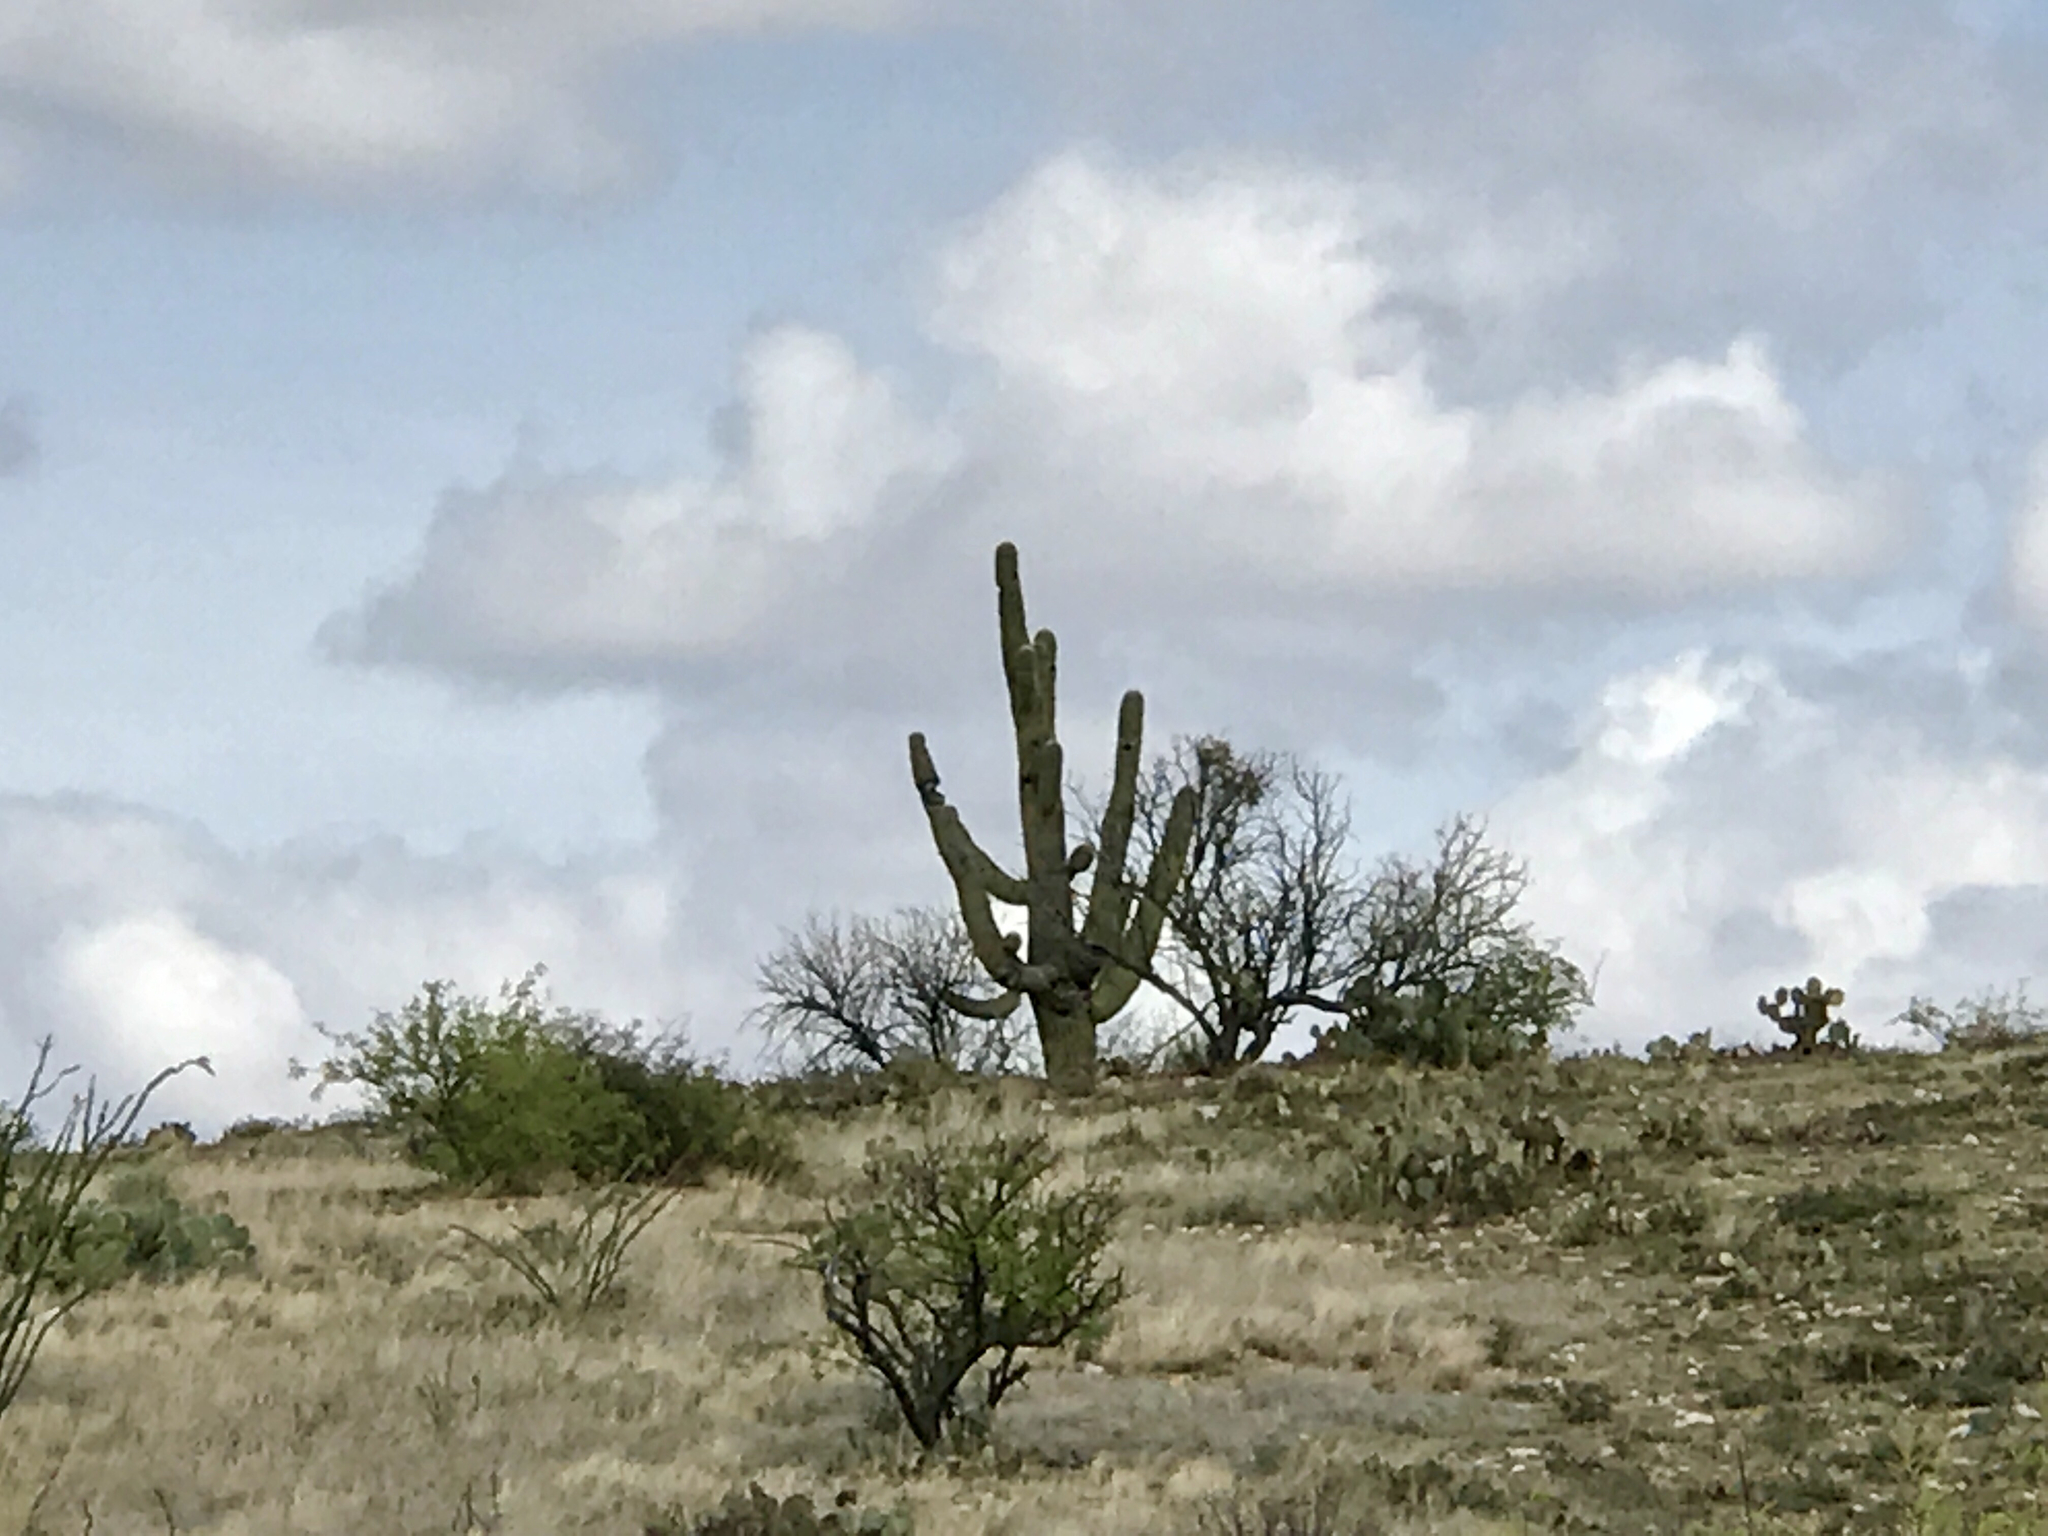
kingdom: Plantae
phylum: Tracheophyta
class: Magnoliopsida
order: Caryophyllales
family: Cactaceae
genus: Carnegiea
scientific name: Carnegiea gigantea
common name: Saguaro
